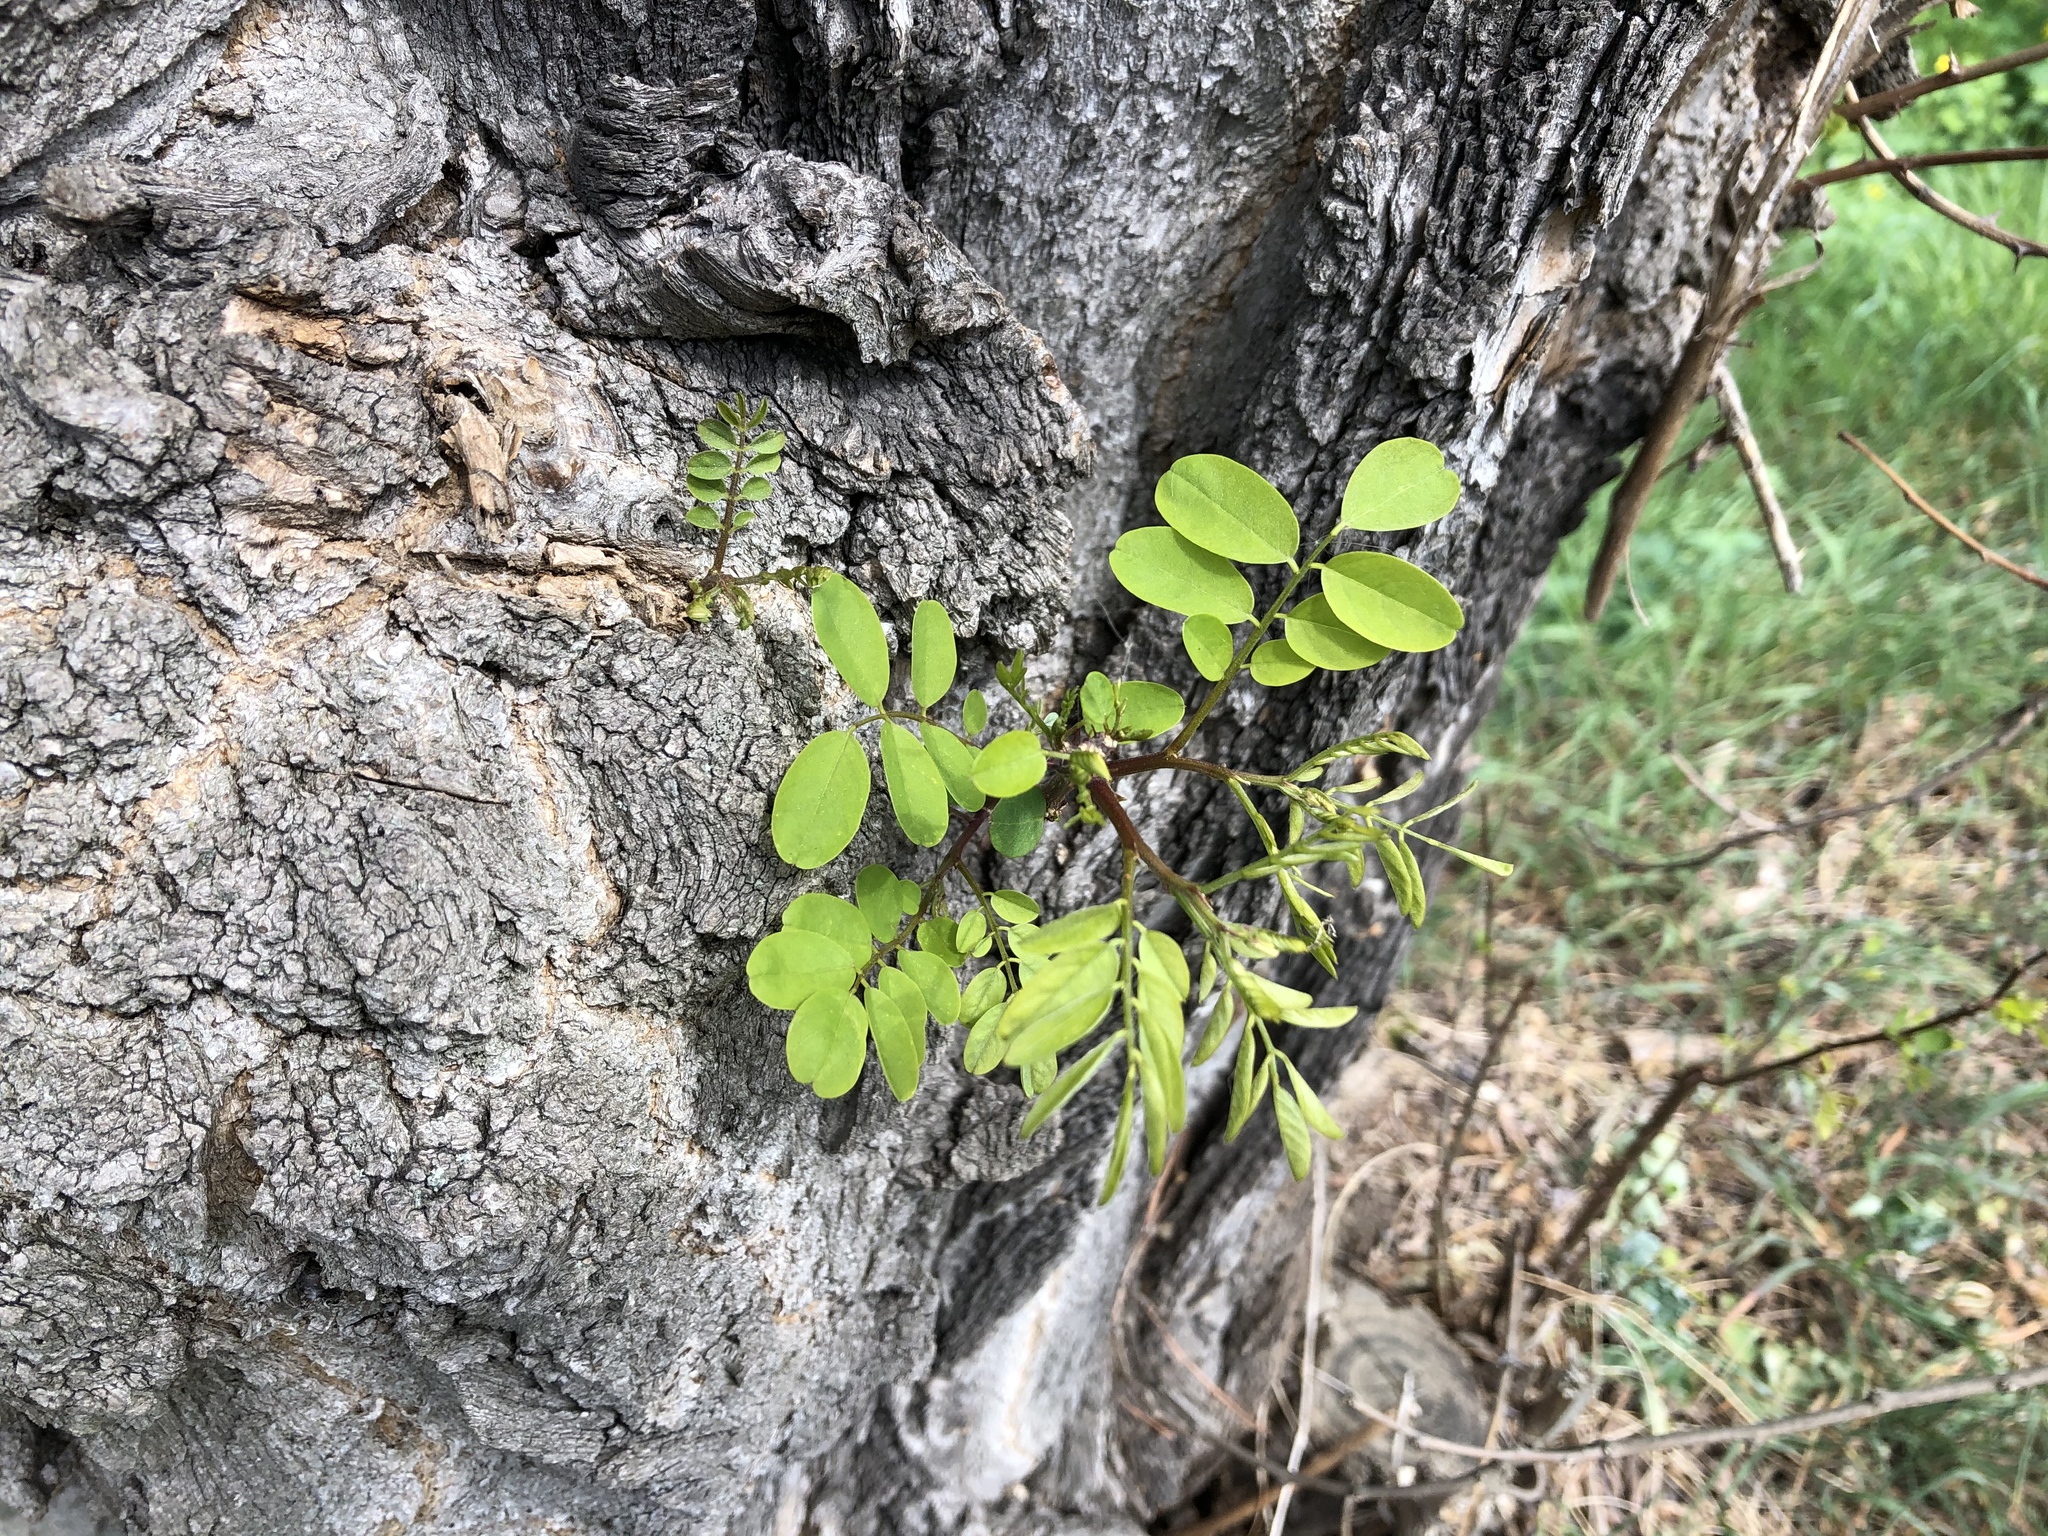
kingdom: Plantae
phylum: Tracheophyta
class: Magnoliopsida
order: Fabales
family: Fabaceae
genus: Robinia
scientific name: Robinia pseudoacacia
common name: Black locust
